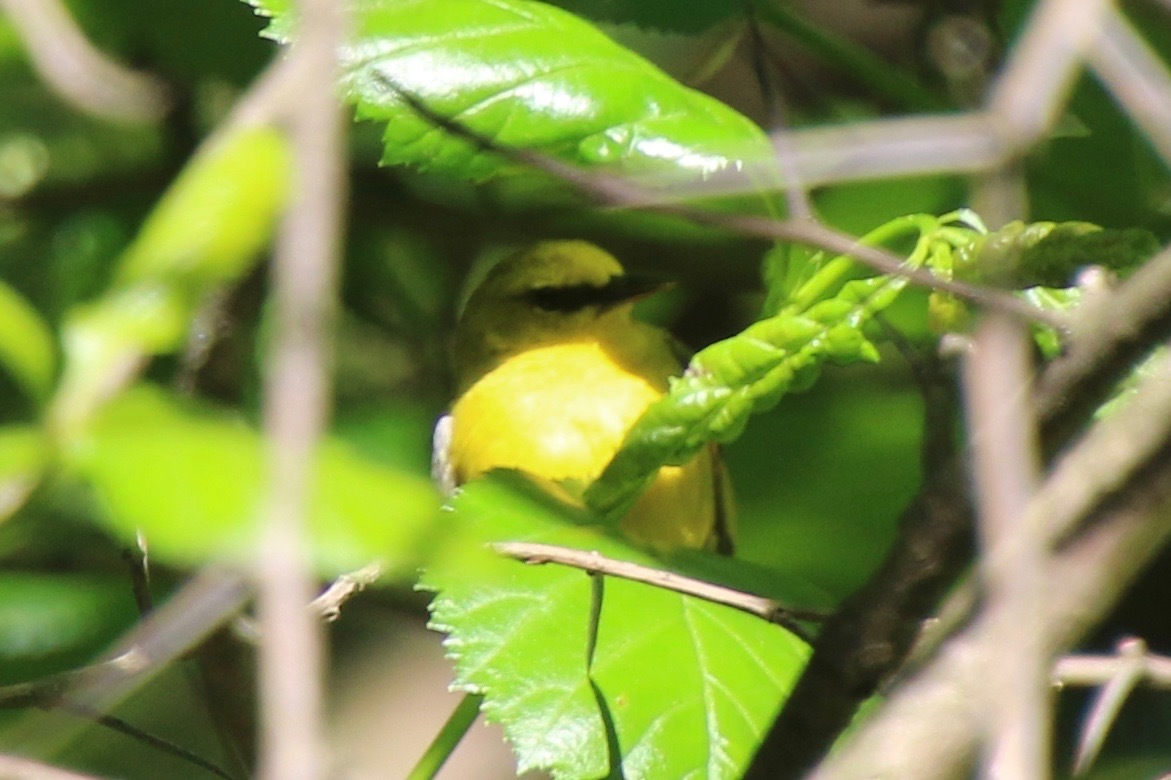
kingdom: Animalia
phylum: Chordata
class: Aves
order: Passeriformes
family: Parulidae
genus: Vermivora
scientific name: Vermivora cyanoptera
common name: Blue-winged warbler
